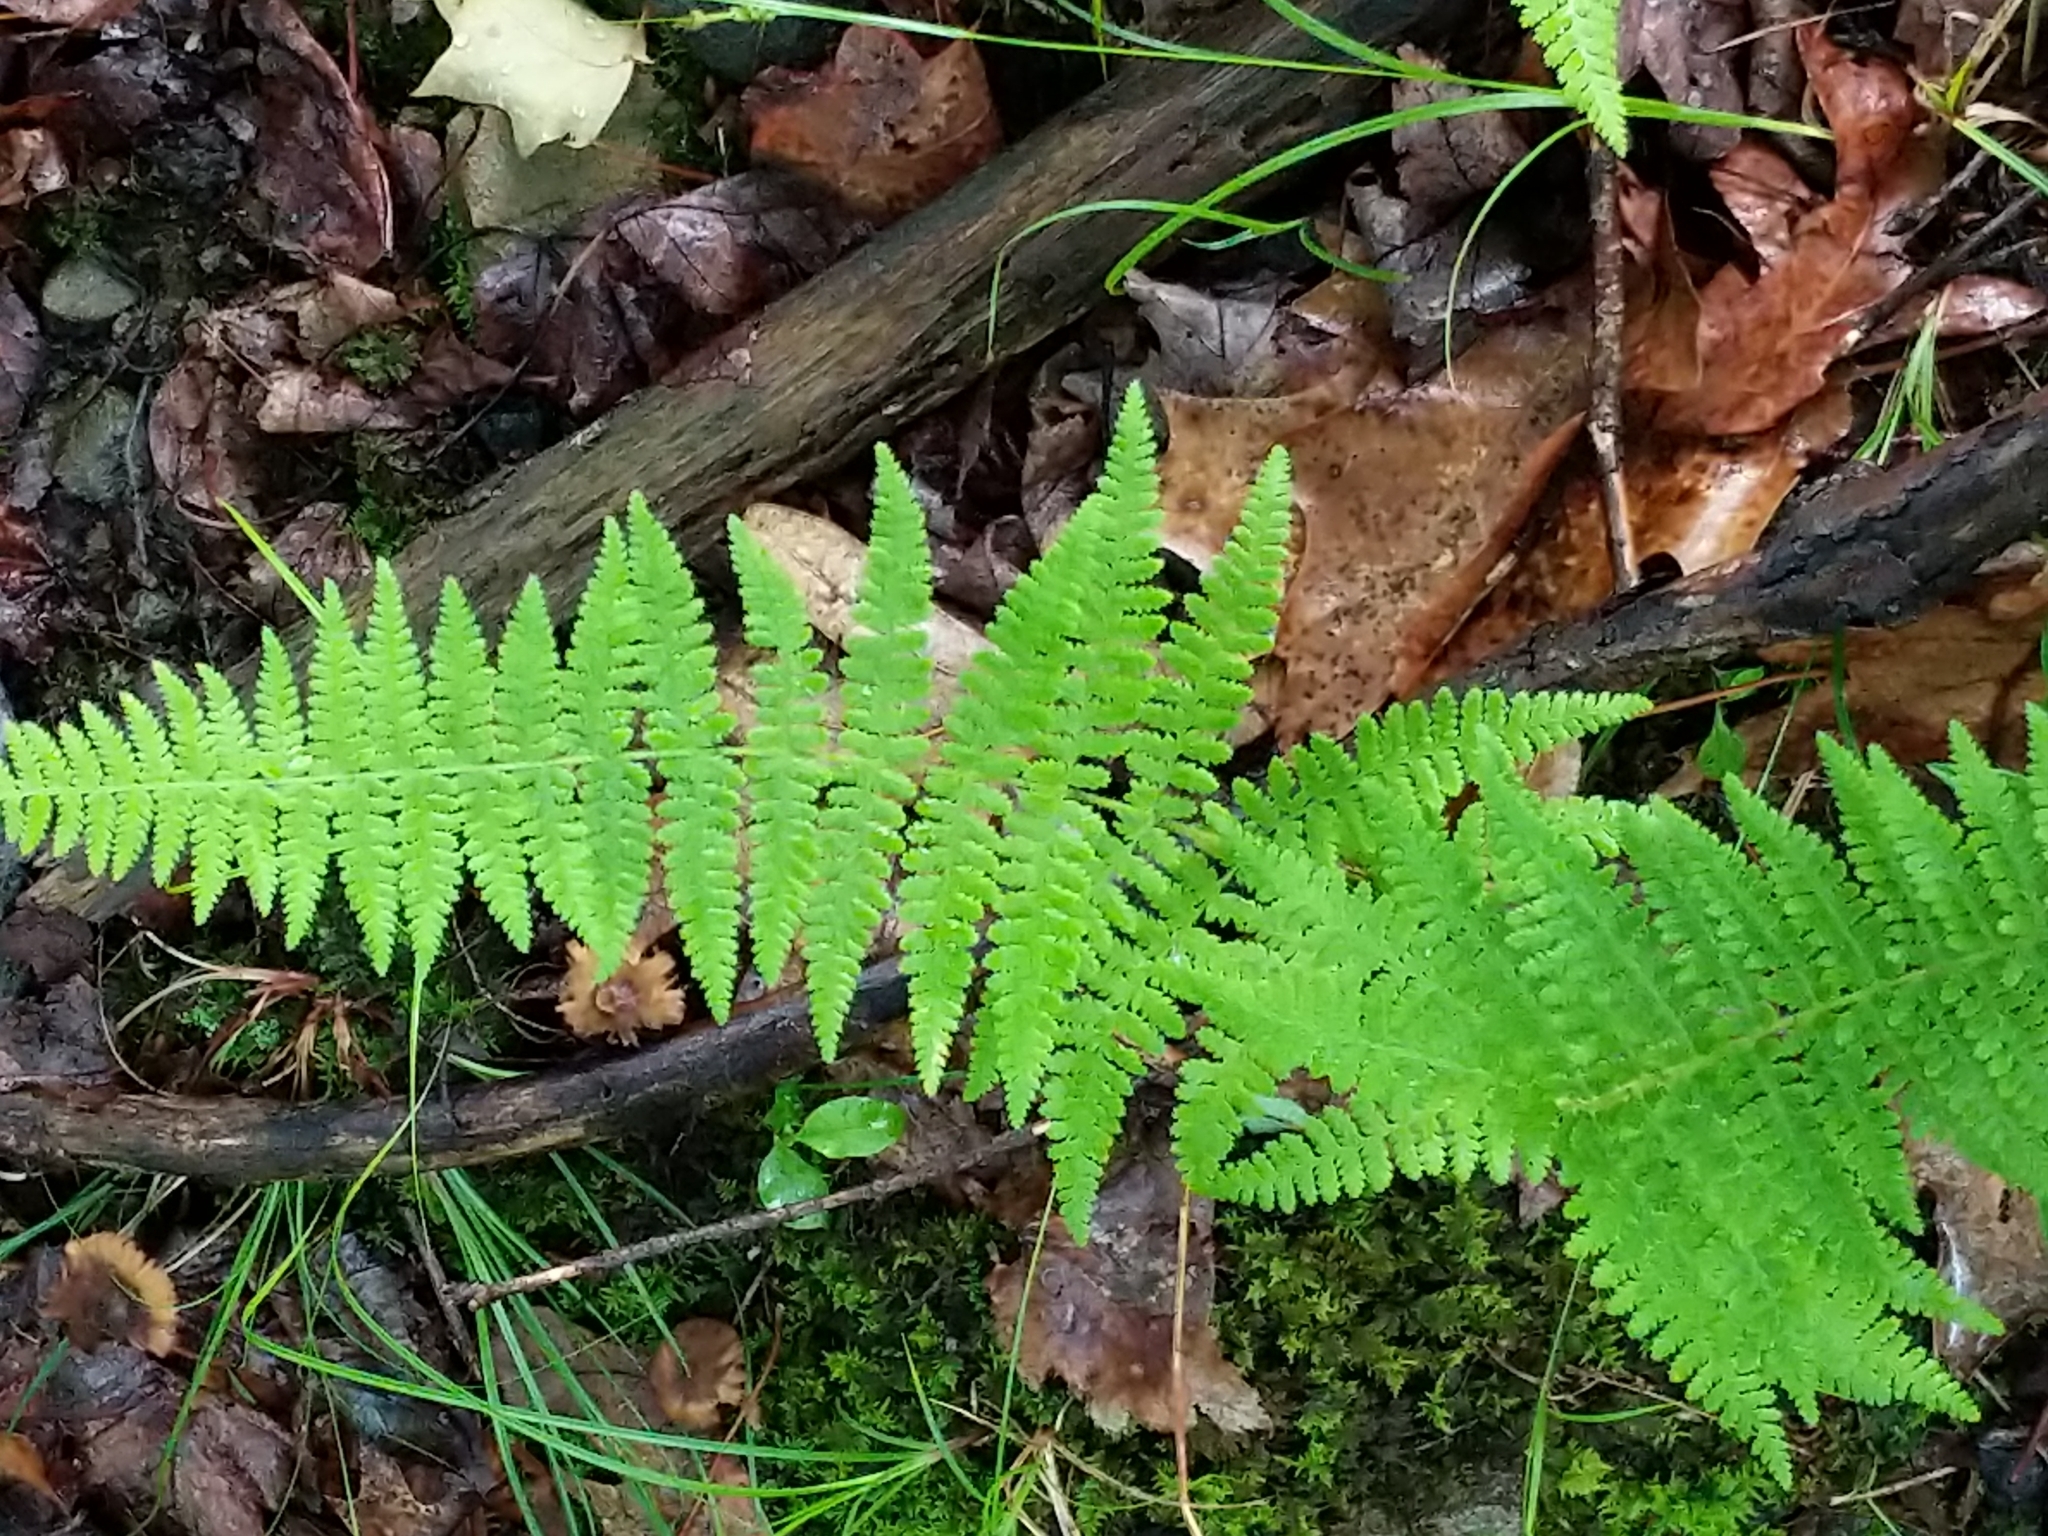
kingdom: Plantae
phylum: Tracheophyta
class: Polypodiopsida
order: Polypodiales
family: Dennstaedtiaceae
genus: Sitobolium
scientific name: Sitobolium punctilobum
